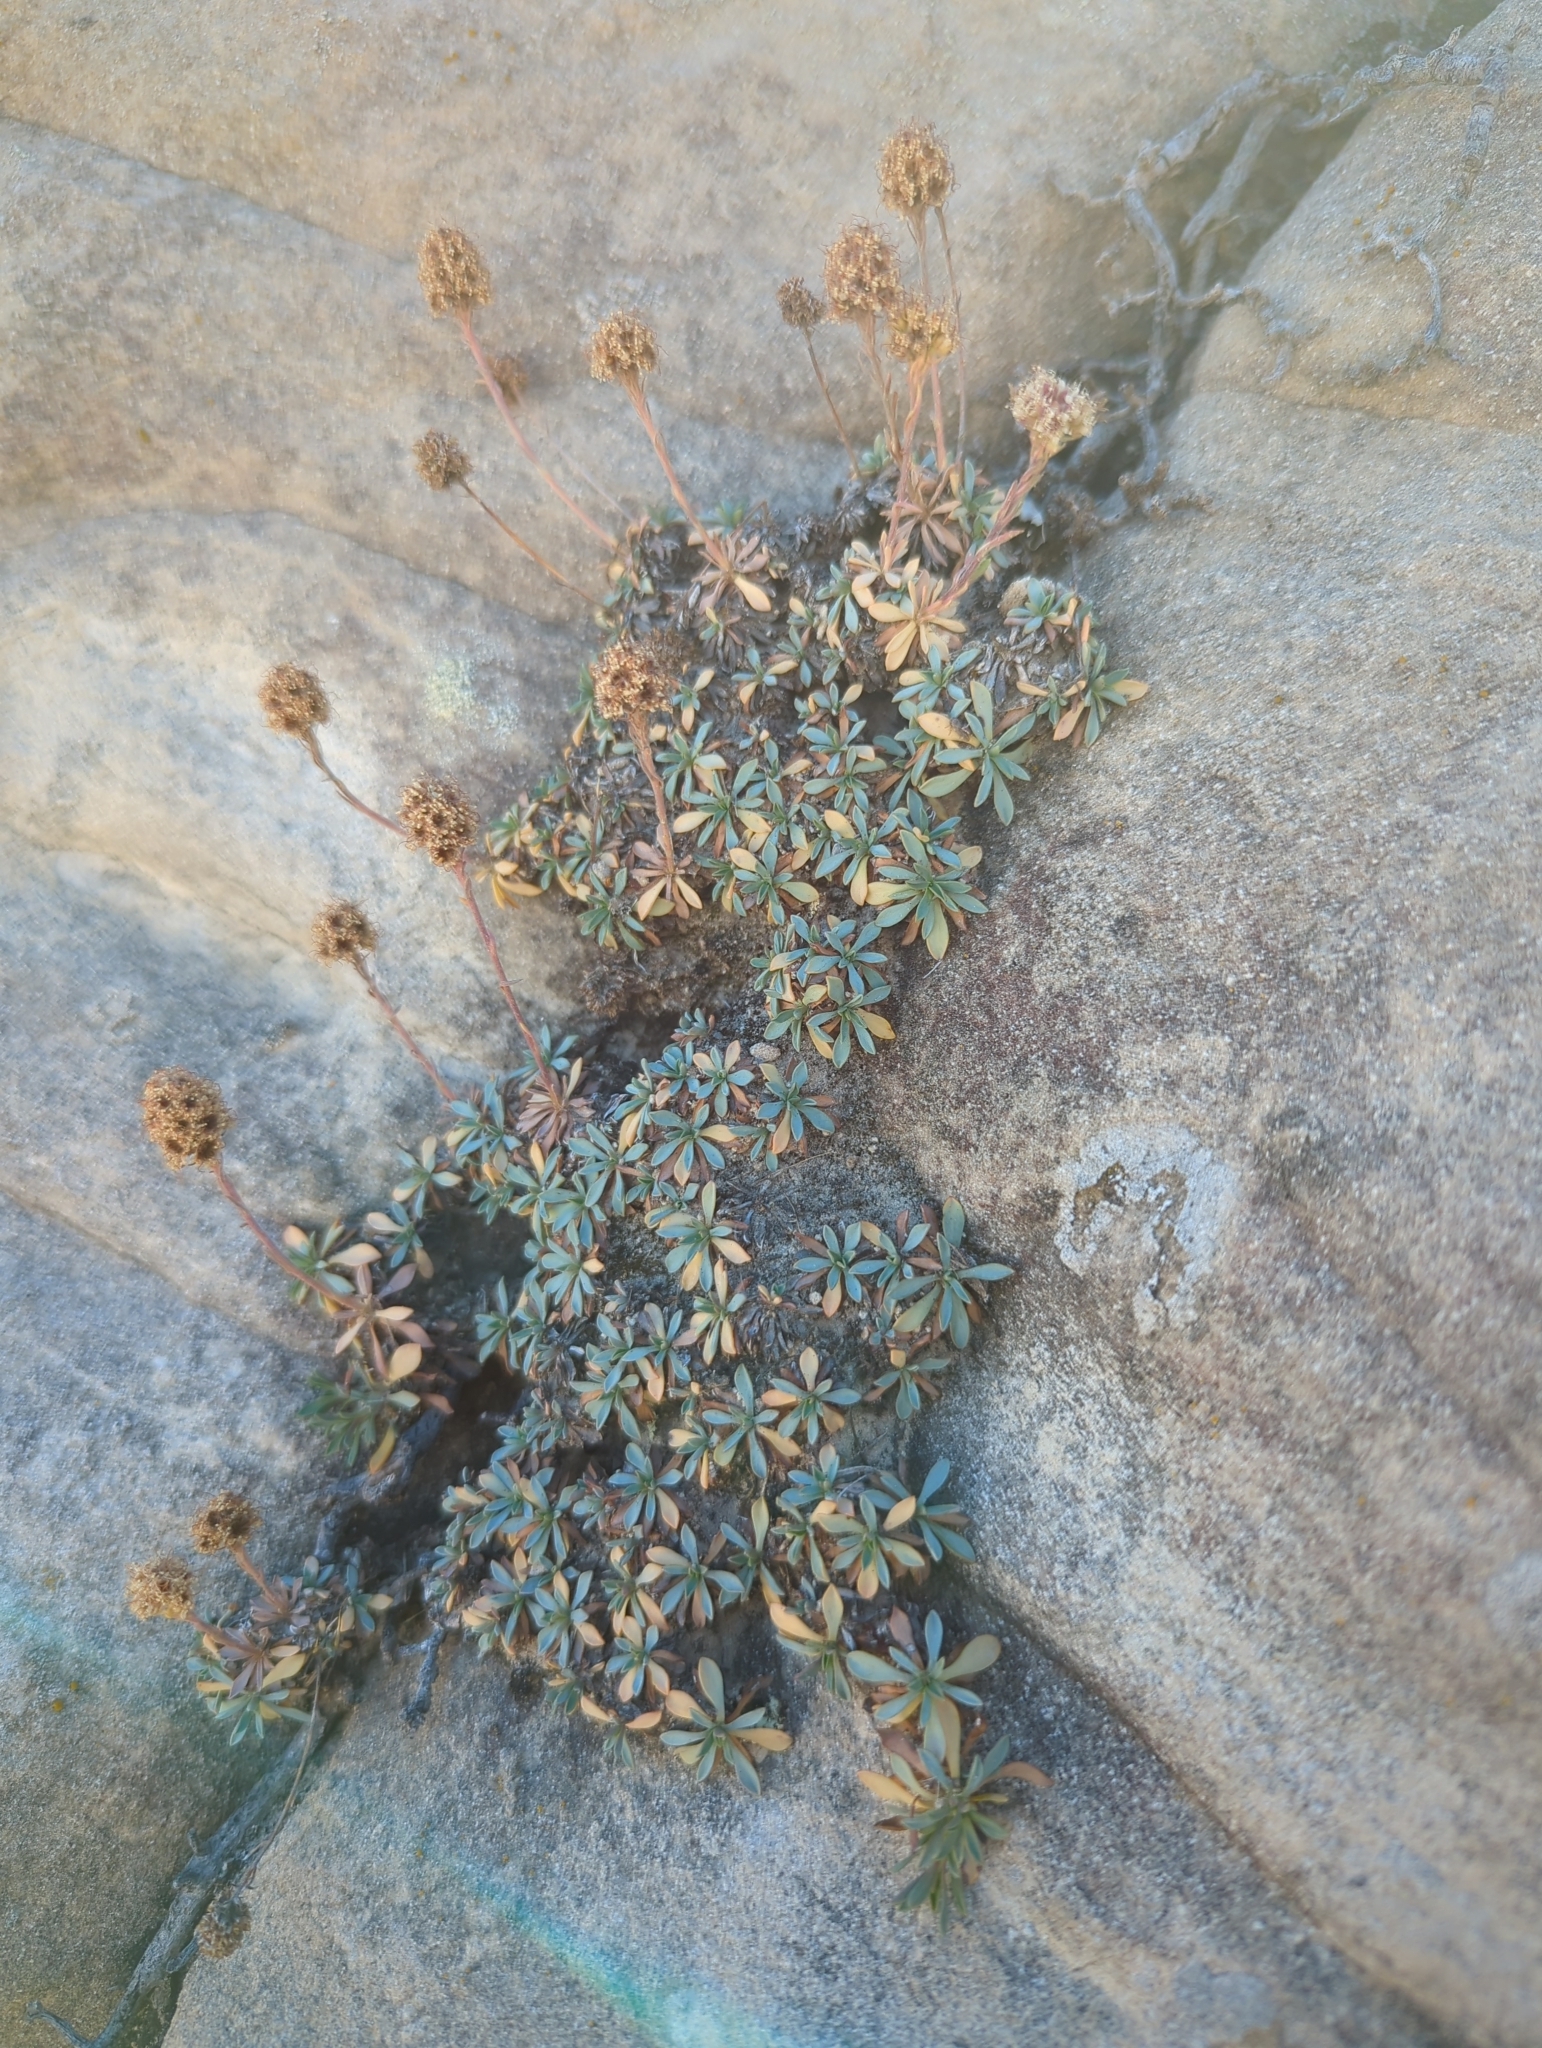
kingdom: Plantae
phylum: Tracheophyta
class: Magnoliopsida
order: Rosales
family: Rosaceae
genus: Petrophytum
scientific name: Petrophytum caespitosum
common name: Mat rockspirea
